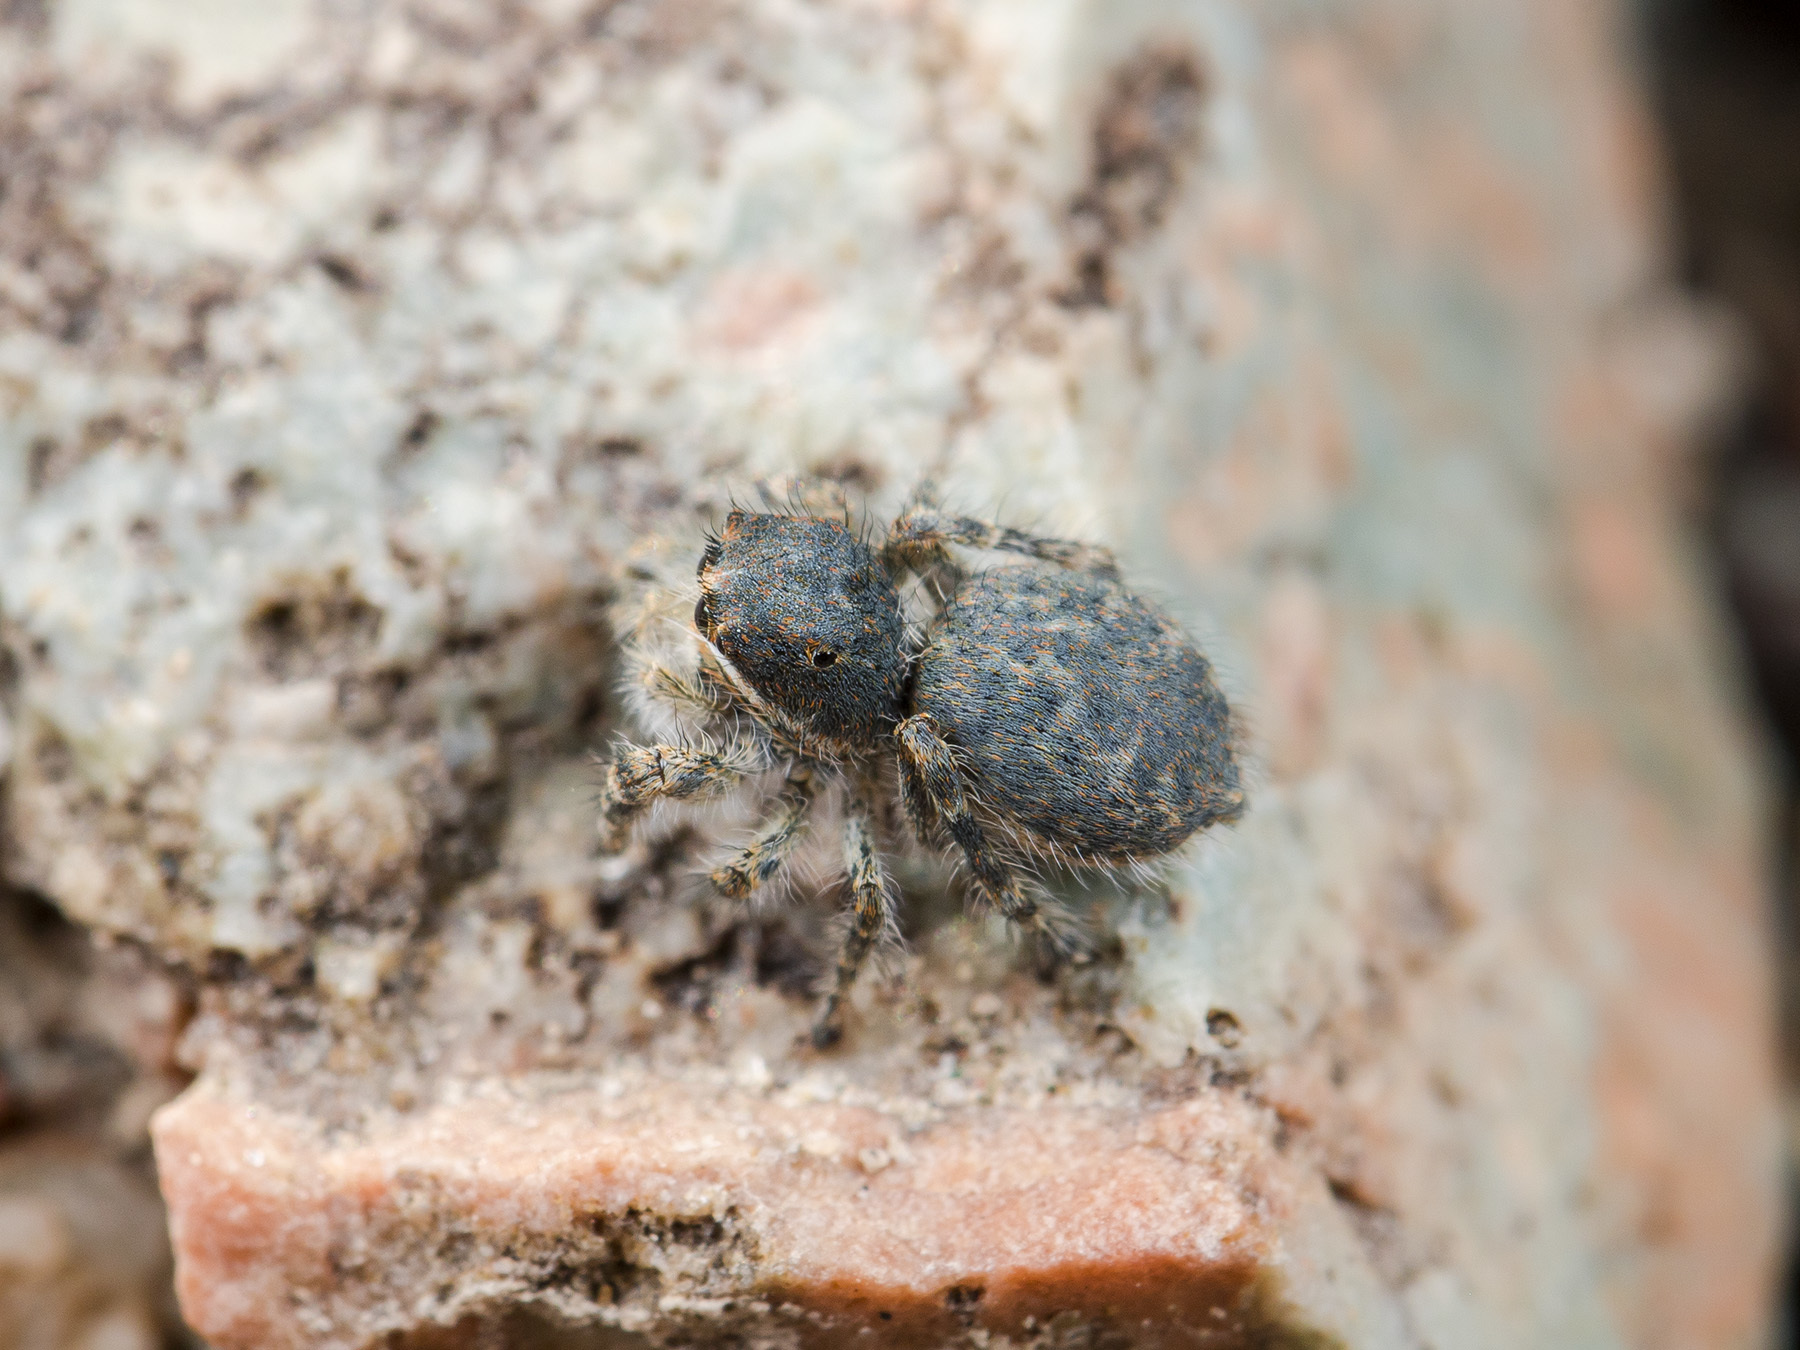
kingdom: Animalia
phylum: Arthropoda
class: Arachnida
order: Araneae
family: Salticidae
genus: Yllenus
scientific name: Yllenus zyuzini
